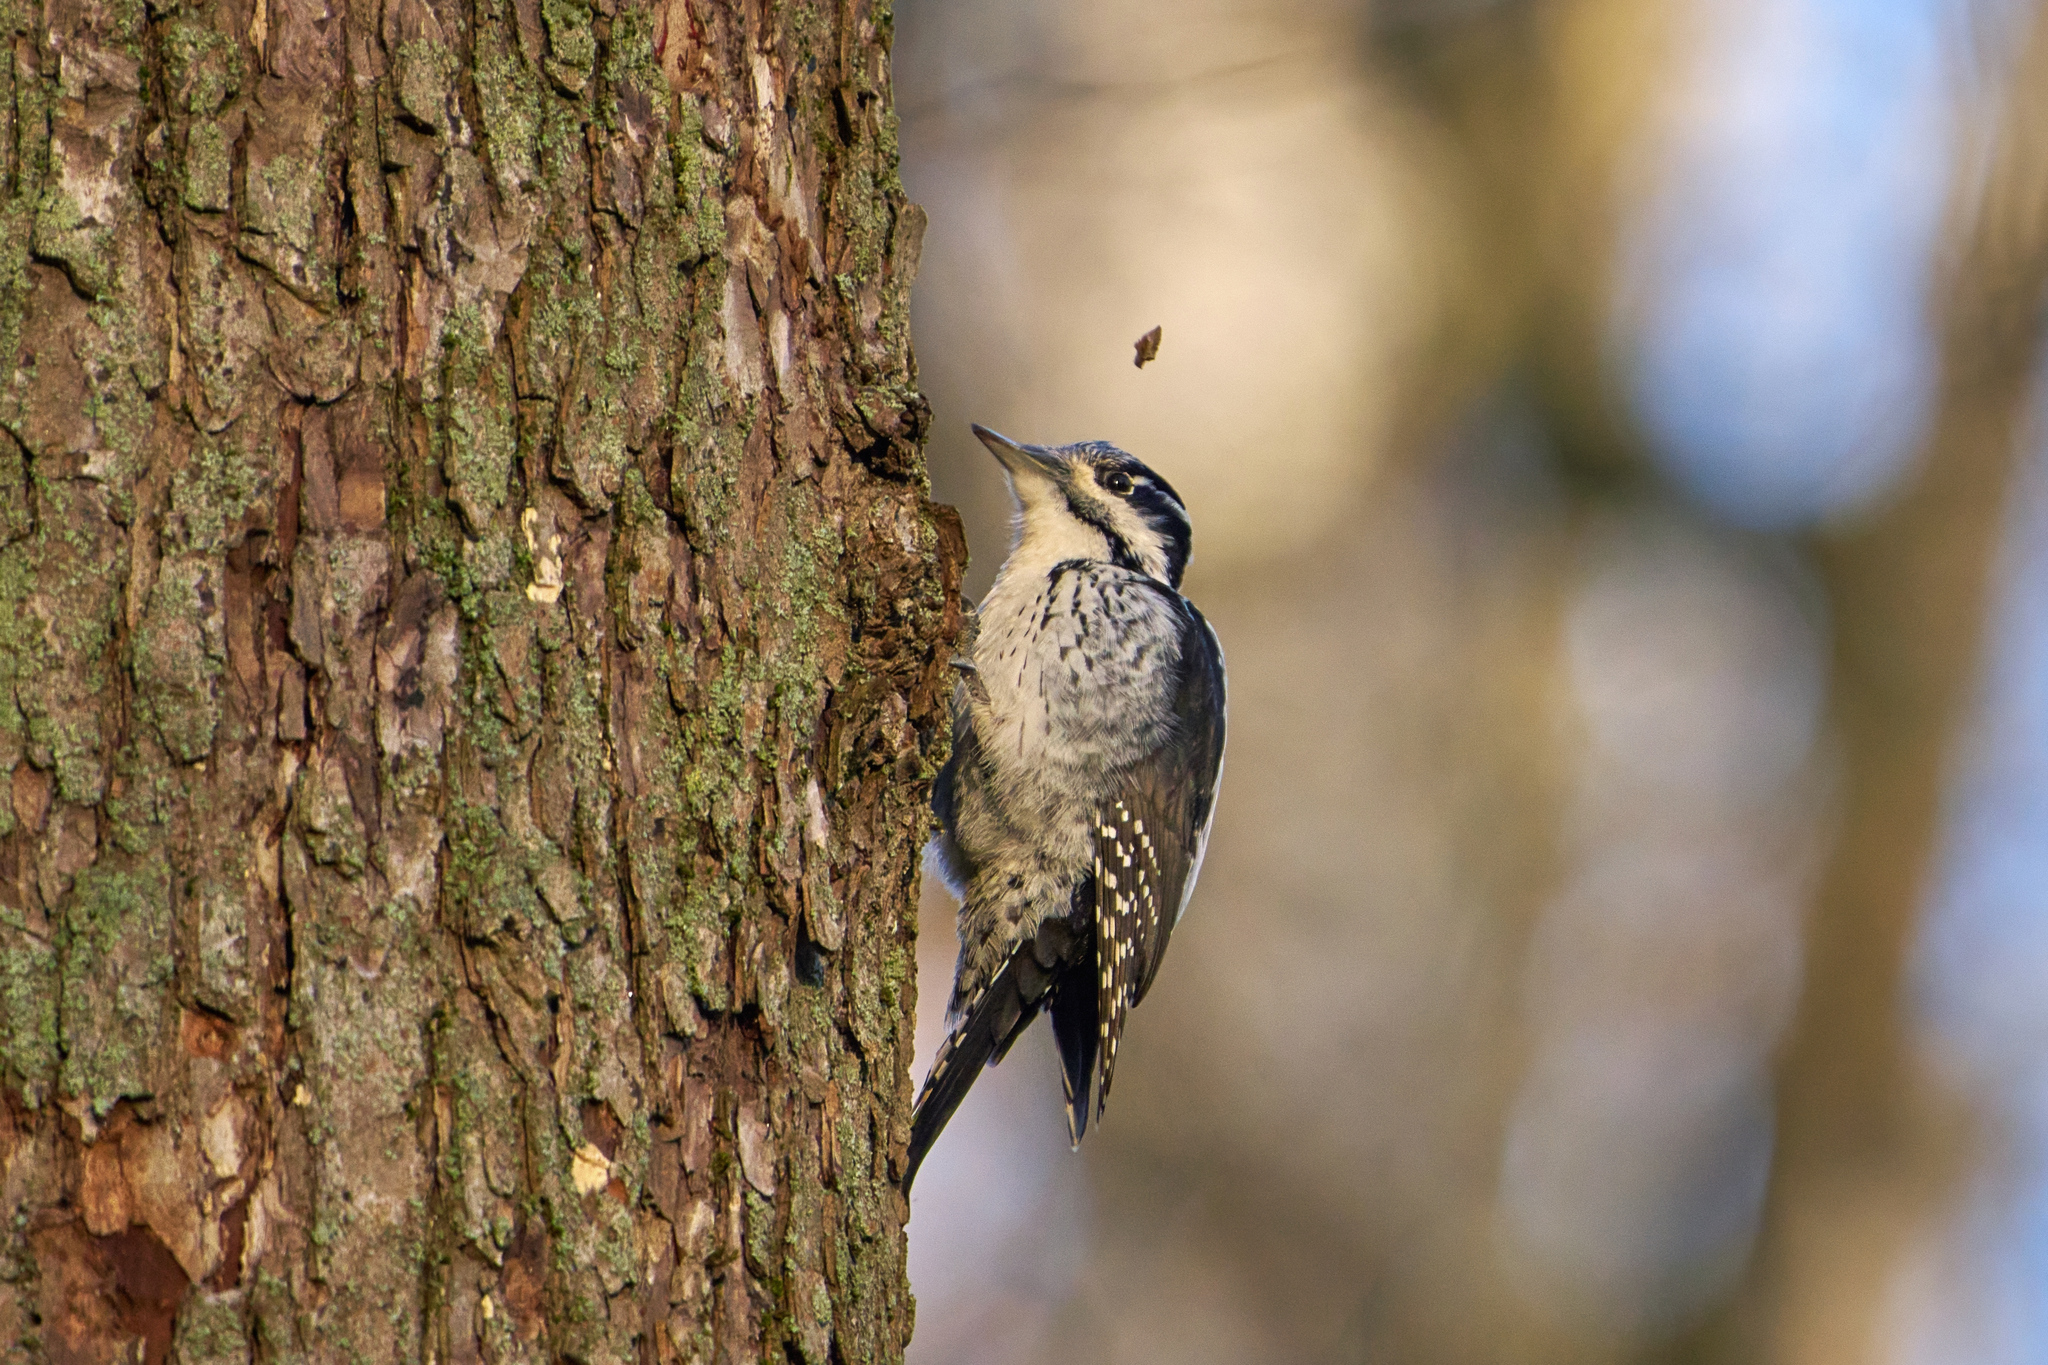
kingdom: Animalia
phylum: Chordata
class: Aves
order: Piciformes
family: Picidae
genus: Picoides
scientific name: Picoides tridactylus
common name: Eurasian three-toed woodpecker
